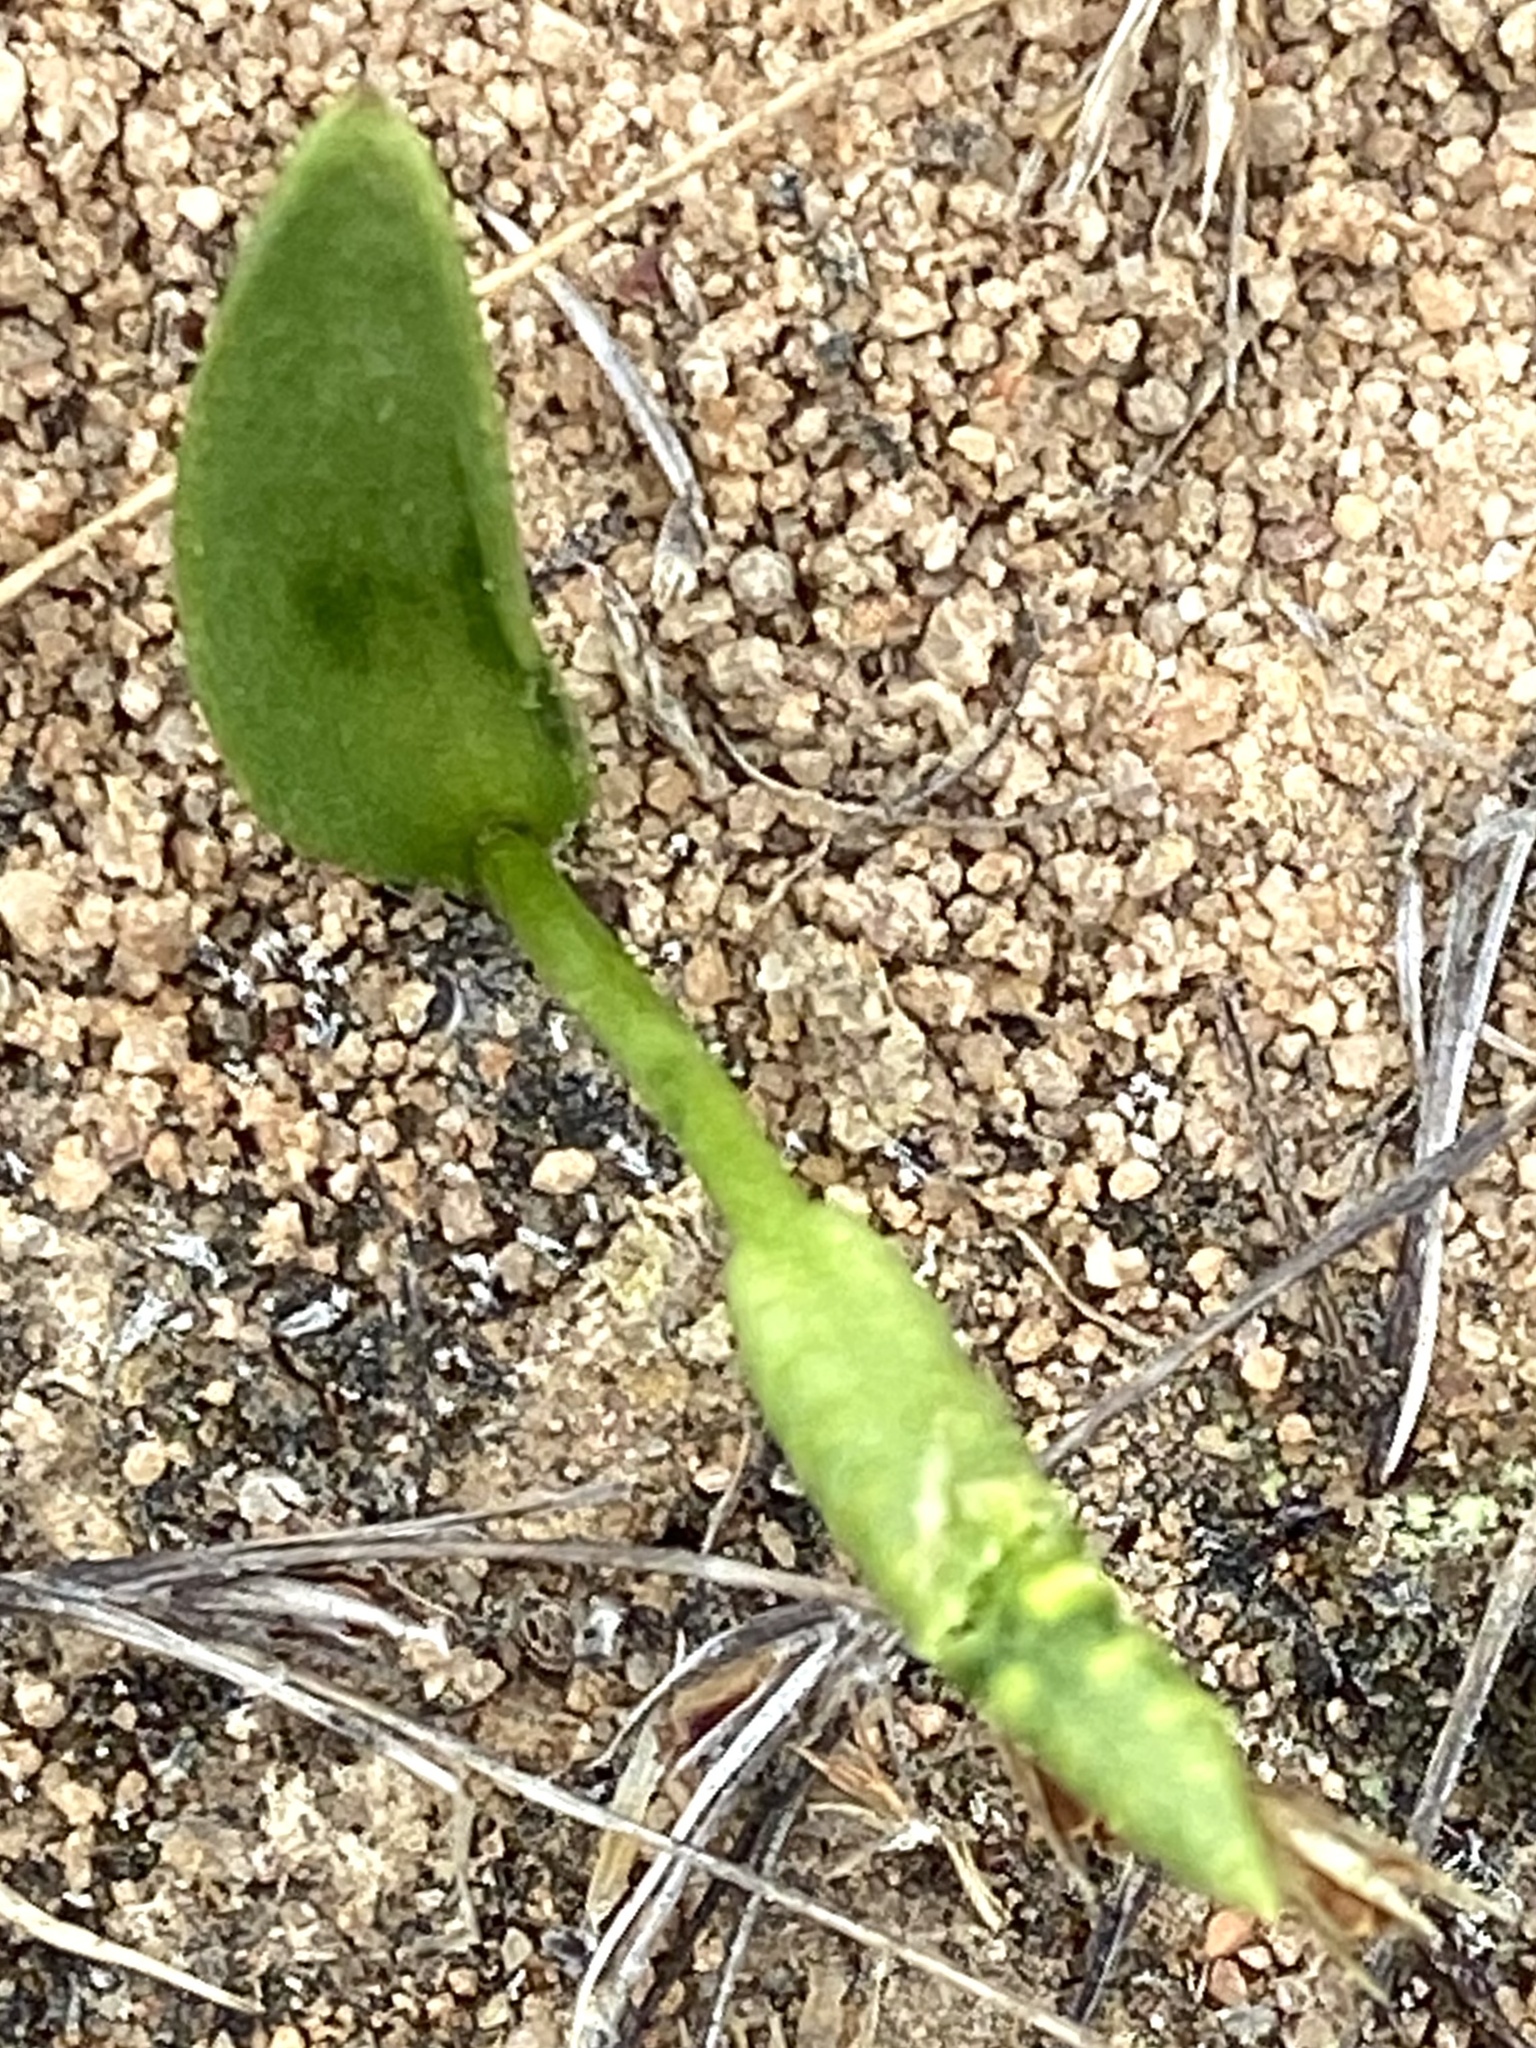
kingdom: Plantae
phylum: Tracheophyta
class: Polypodiopsida
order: Ophioglossales
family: Ophioglossaceae
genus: Ophioglossum
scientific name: Ophioglossum californicum
